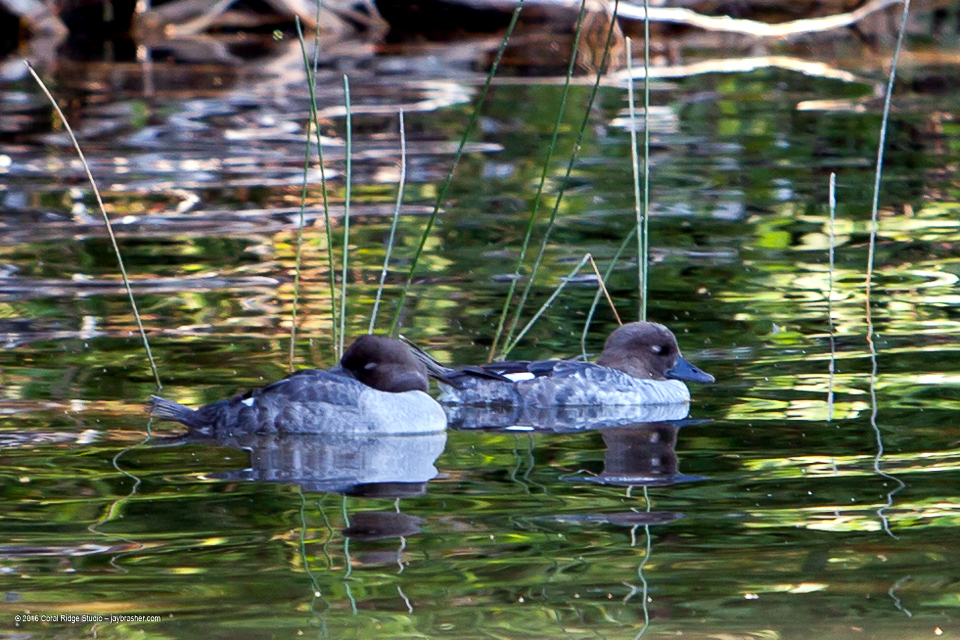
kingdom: Animalia
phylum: Chordata
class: Aves
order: Anseriformes
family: Anatidae
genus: Bucephala
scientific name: Bucephala clangula
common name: Common goldeneye
